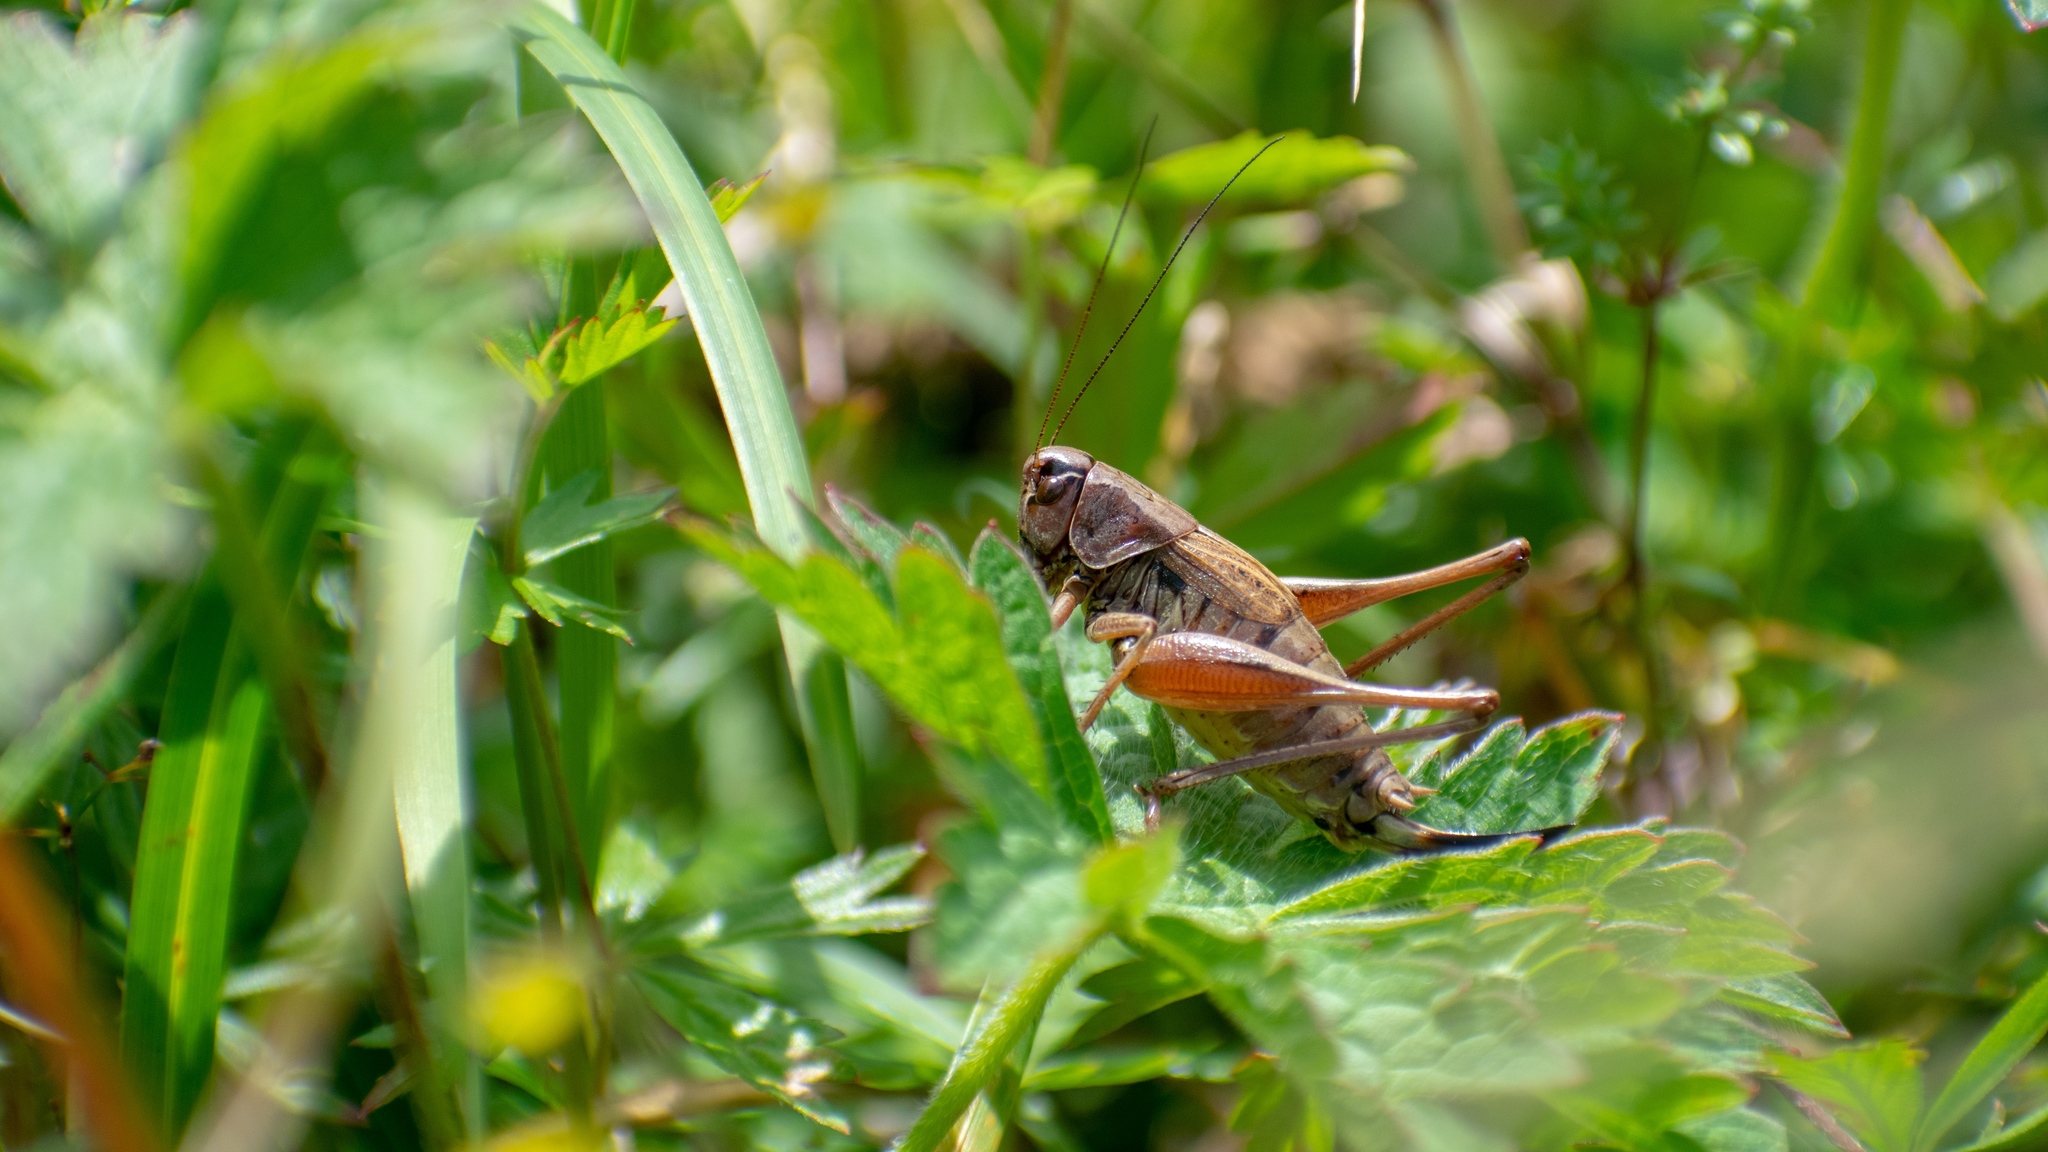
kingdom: Animalia
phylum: Arthropoda
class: Insecta
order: Orthoptera
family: Tettigoniidae
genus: Metrioptera
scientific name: Metrioptera saussuriana
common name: Purple meadow bush-cricket
